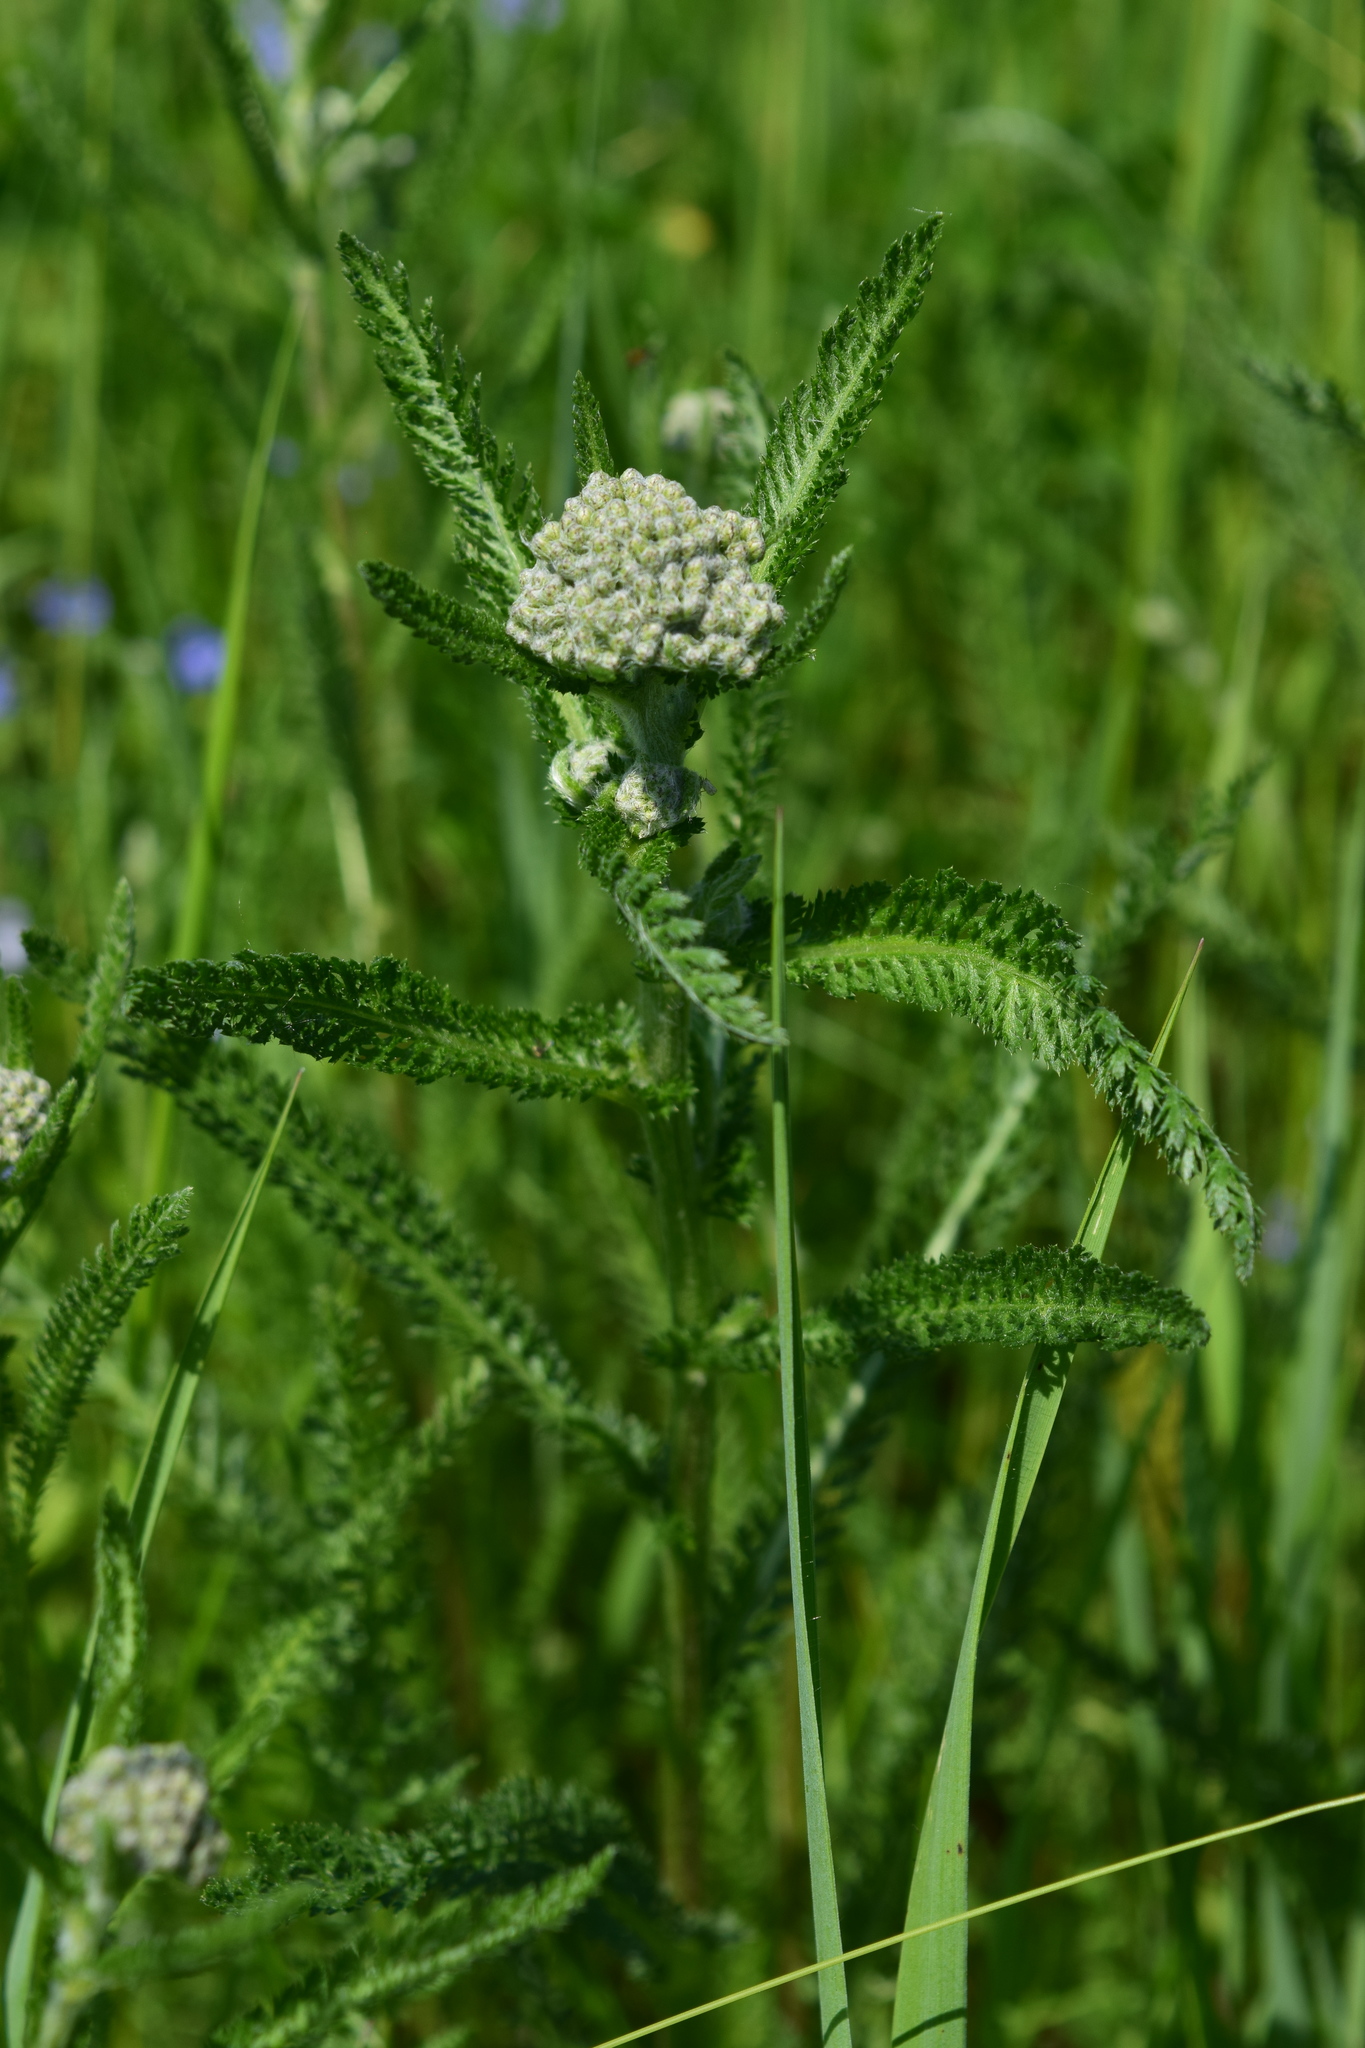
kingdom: Plantae
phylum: Tracheophyta
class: Magnoliopsida
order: Asterales
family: Asteraceae
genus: Achillea
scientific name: Achillea millefolium
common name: Yarrow
